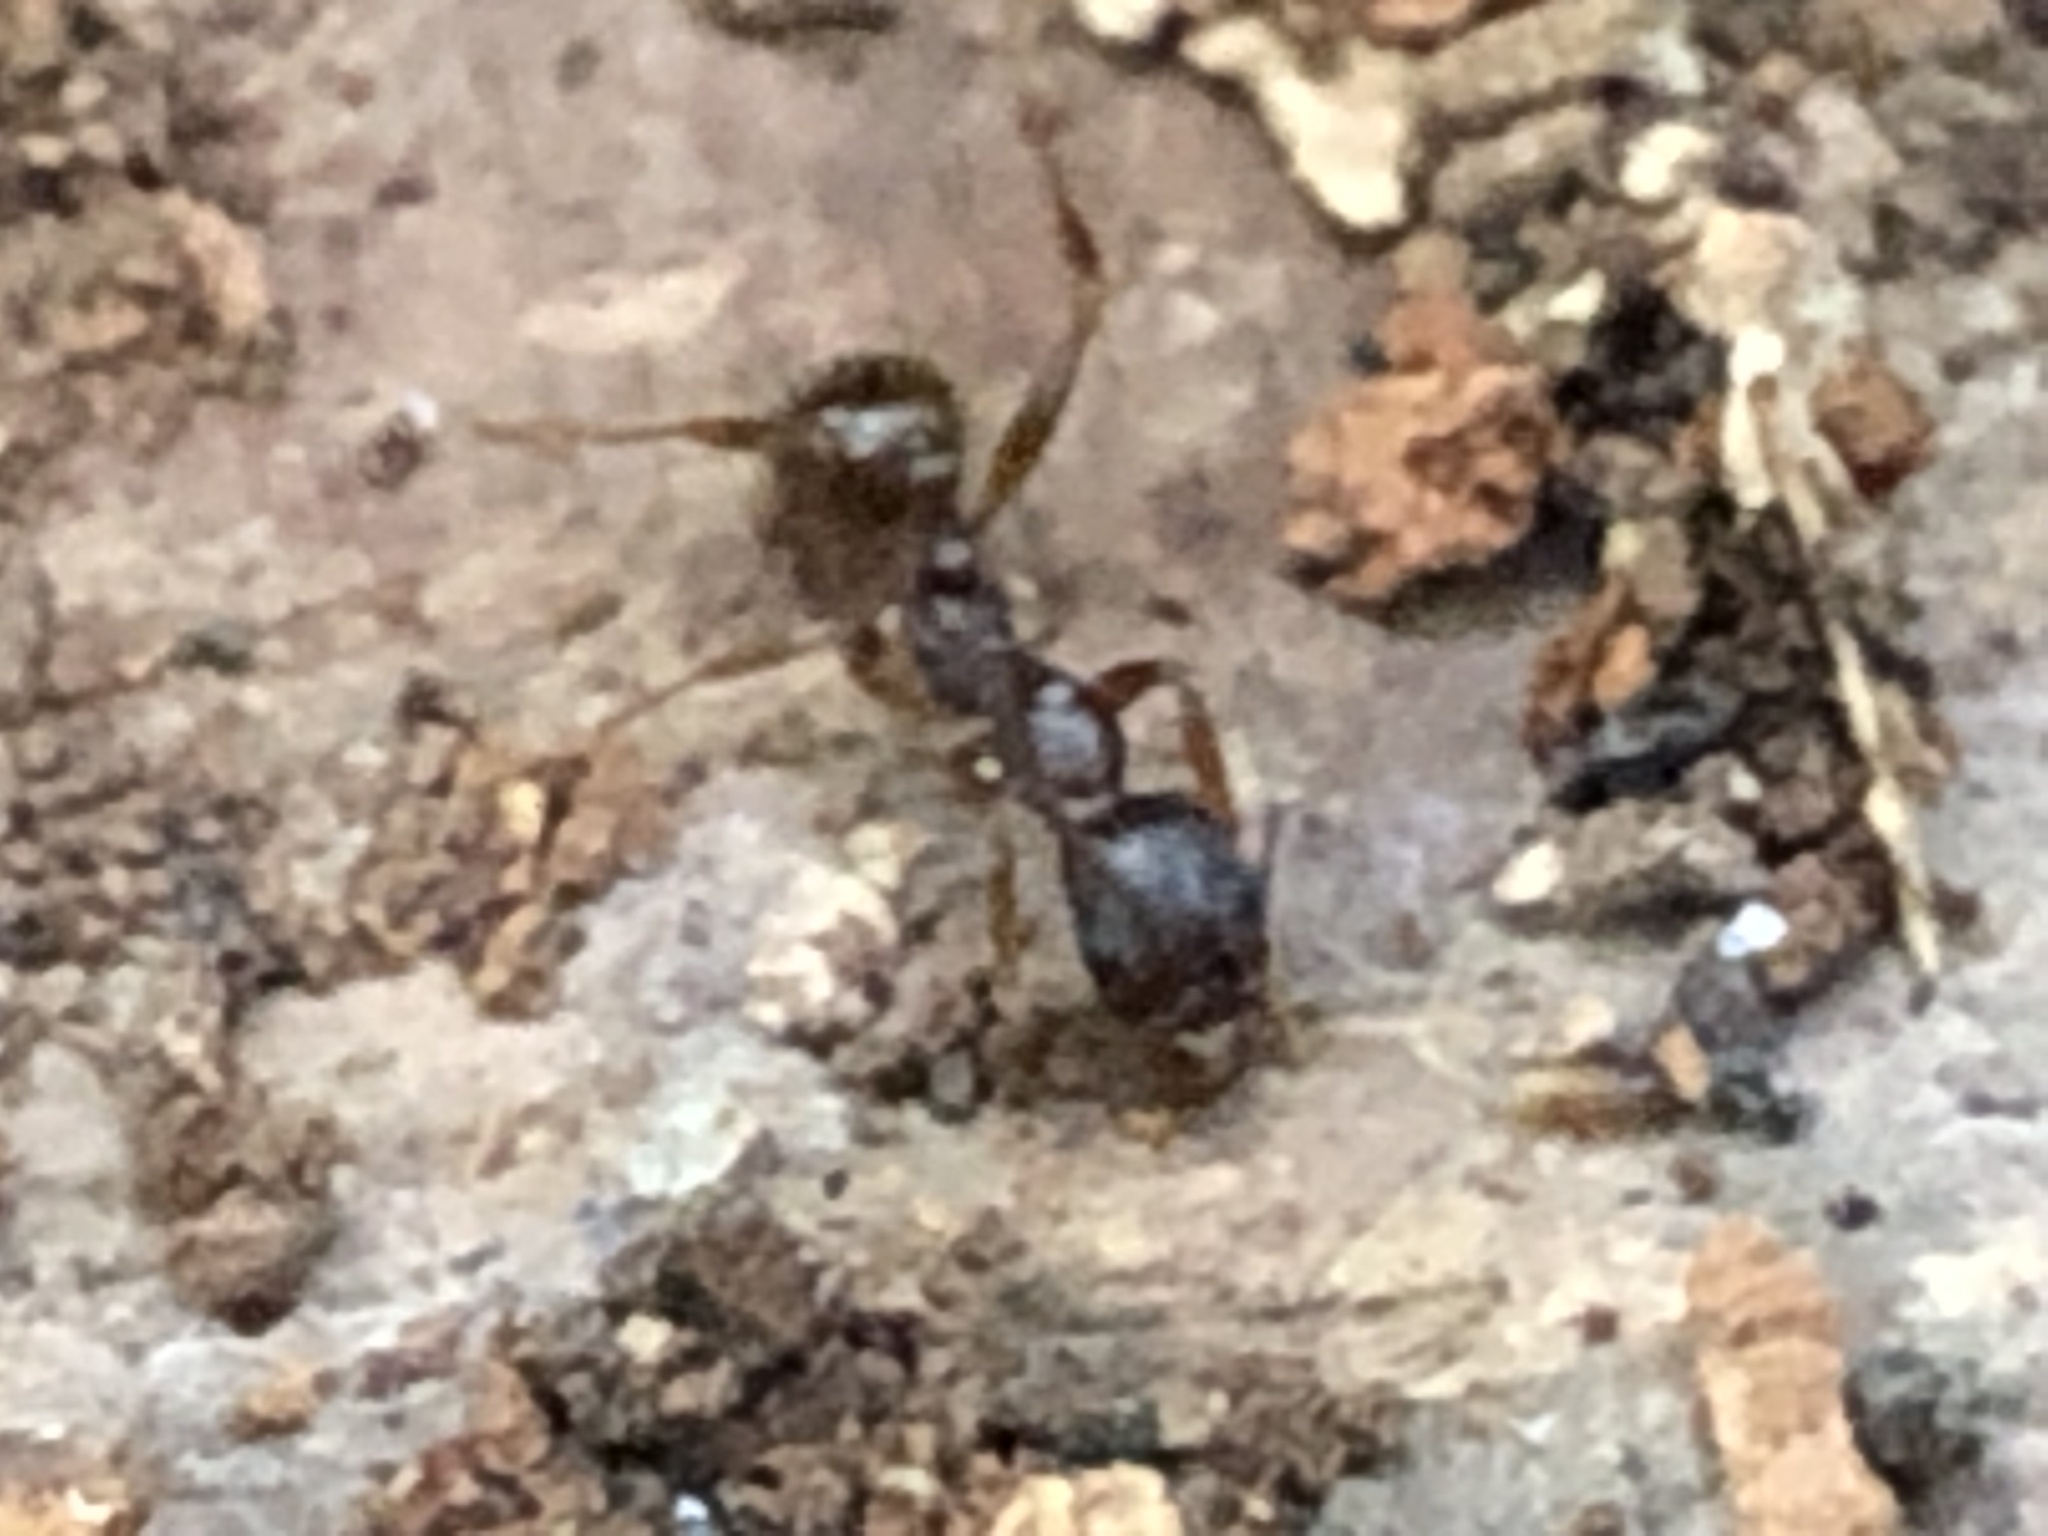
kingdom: Animalia
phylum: Arthropoda
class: Insecta
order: Hymenoptera
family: Formicidae
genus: Aphaenogaster
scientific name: Aphaenogaster rudis
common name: Winnow ant
